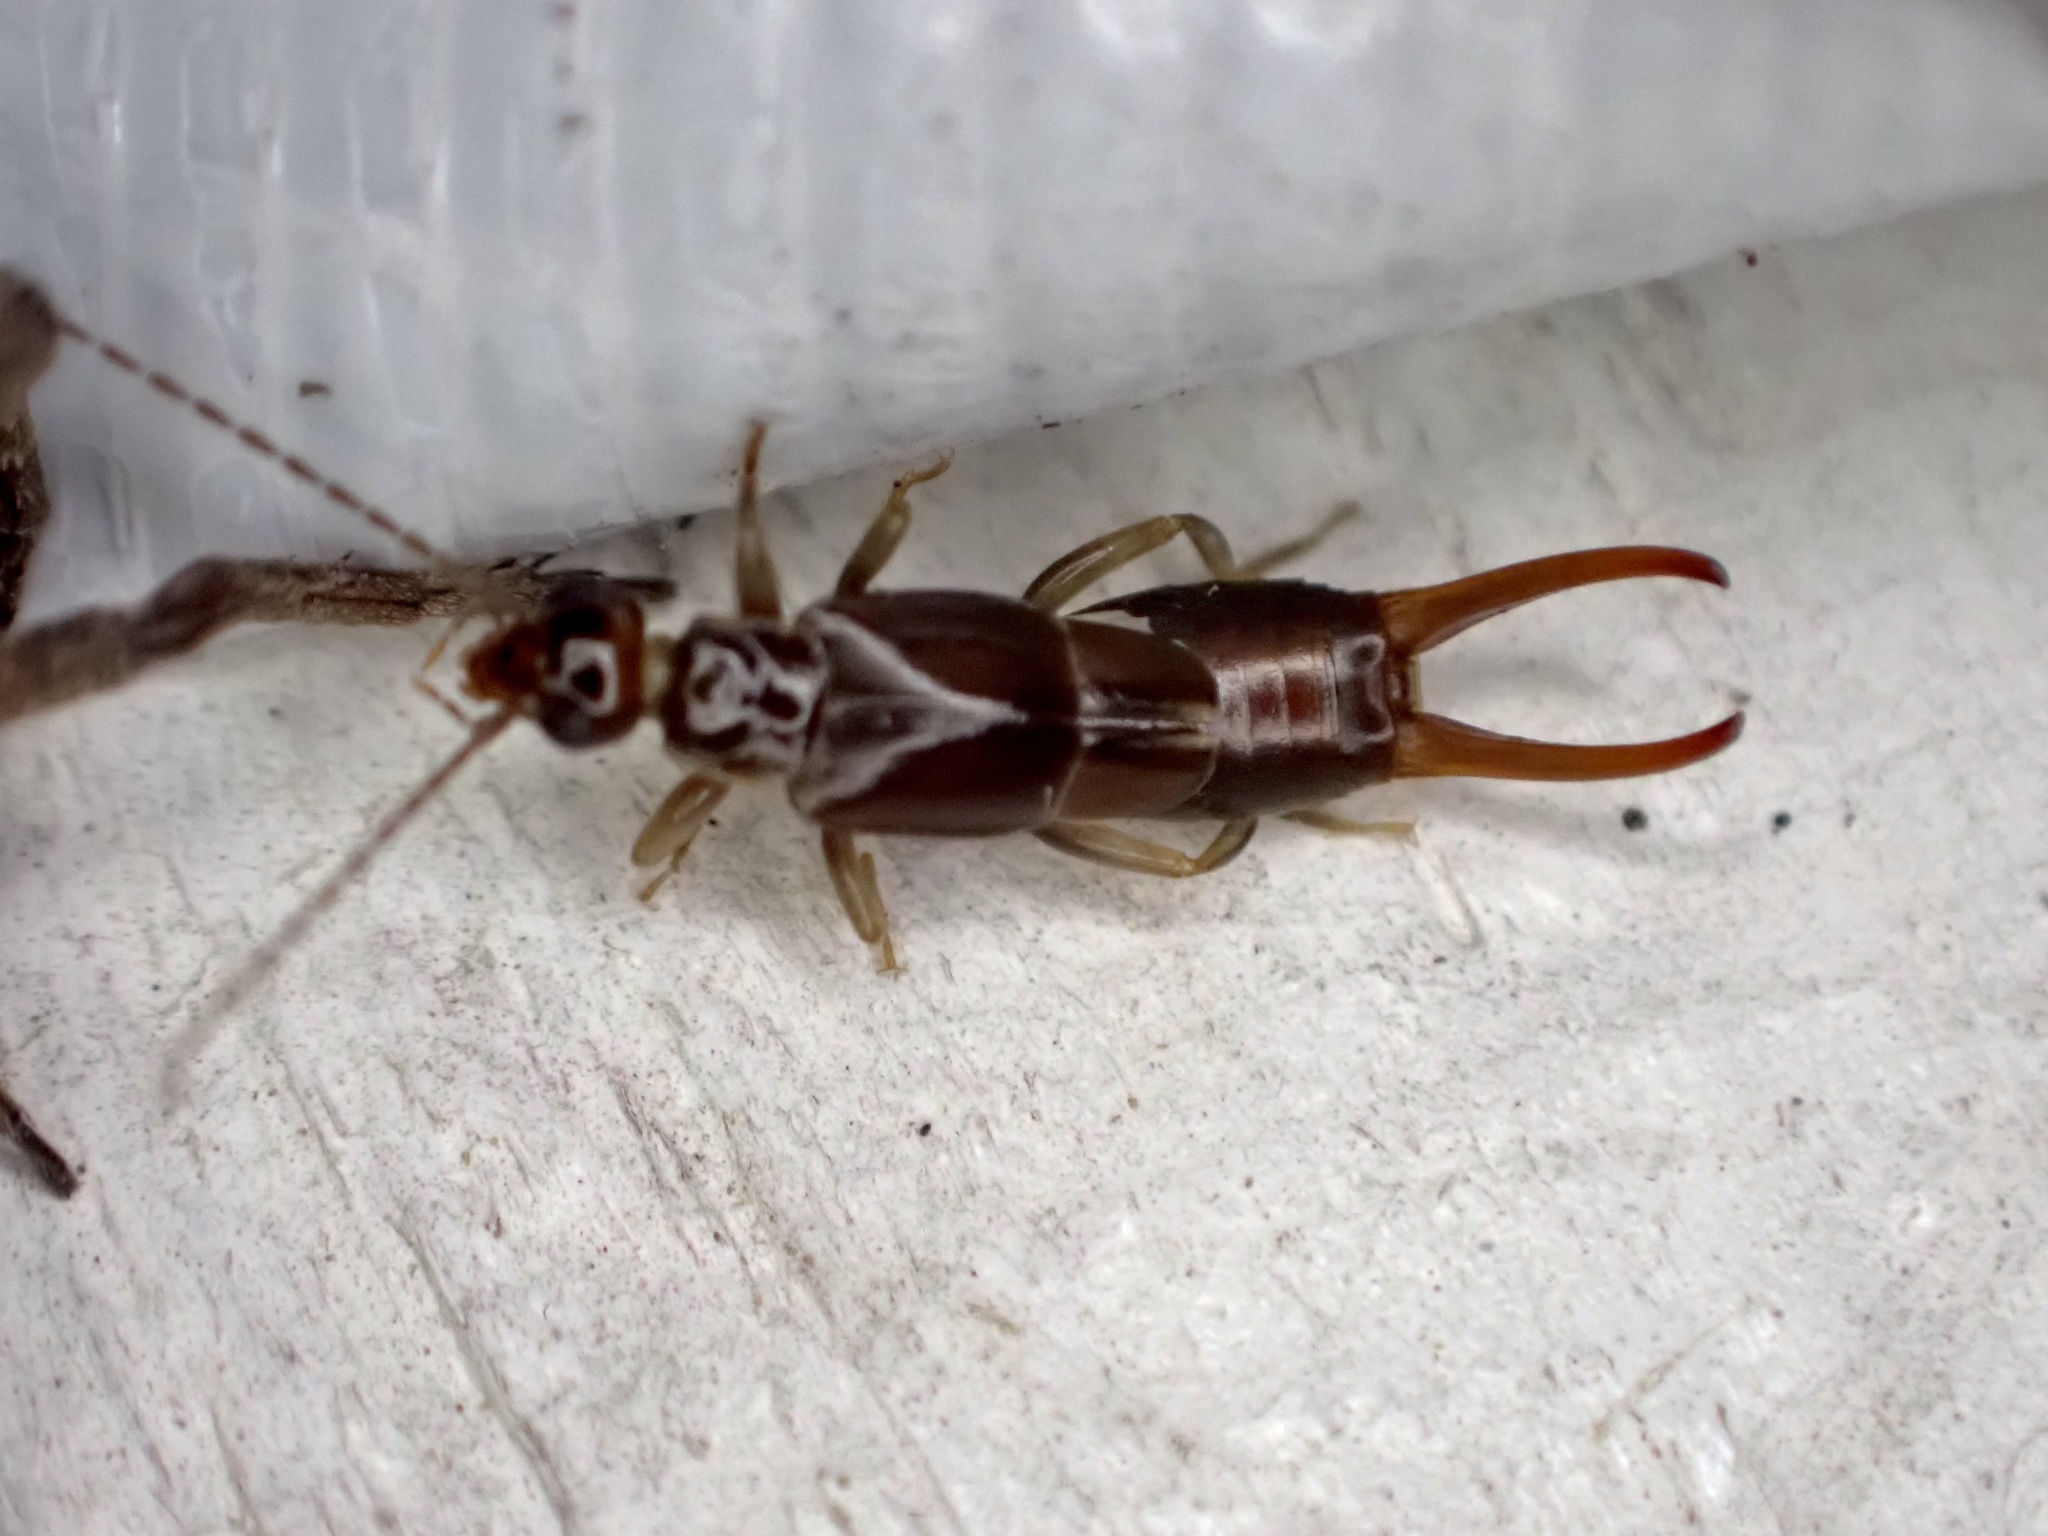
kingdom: Animalia
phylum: Arthropoda
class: Insecta
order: Dermaptera
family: Spongiphoridae
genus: Nesogaster
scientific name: Nesogaster halli
